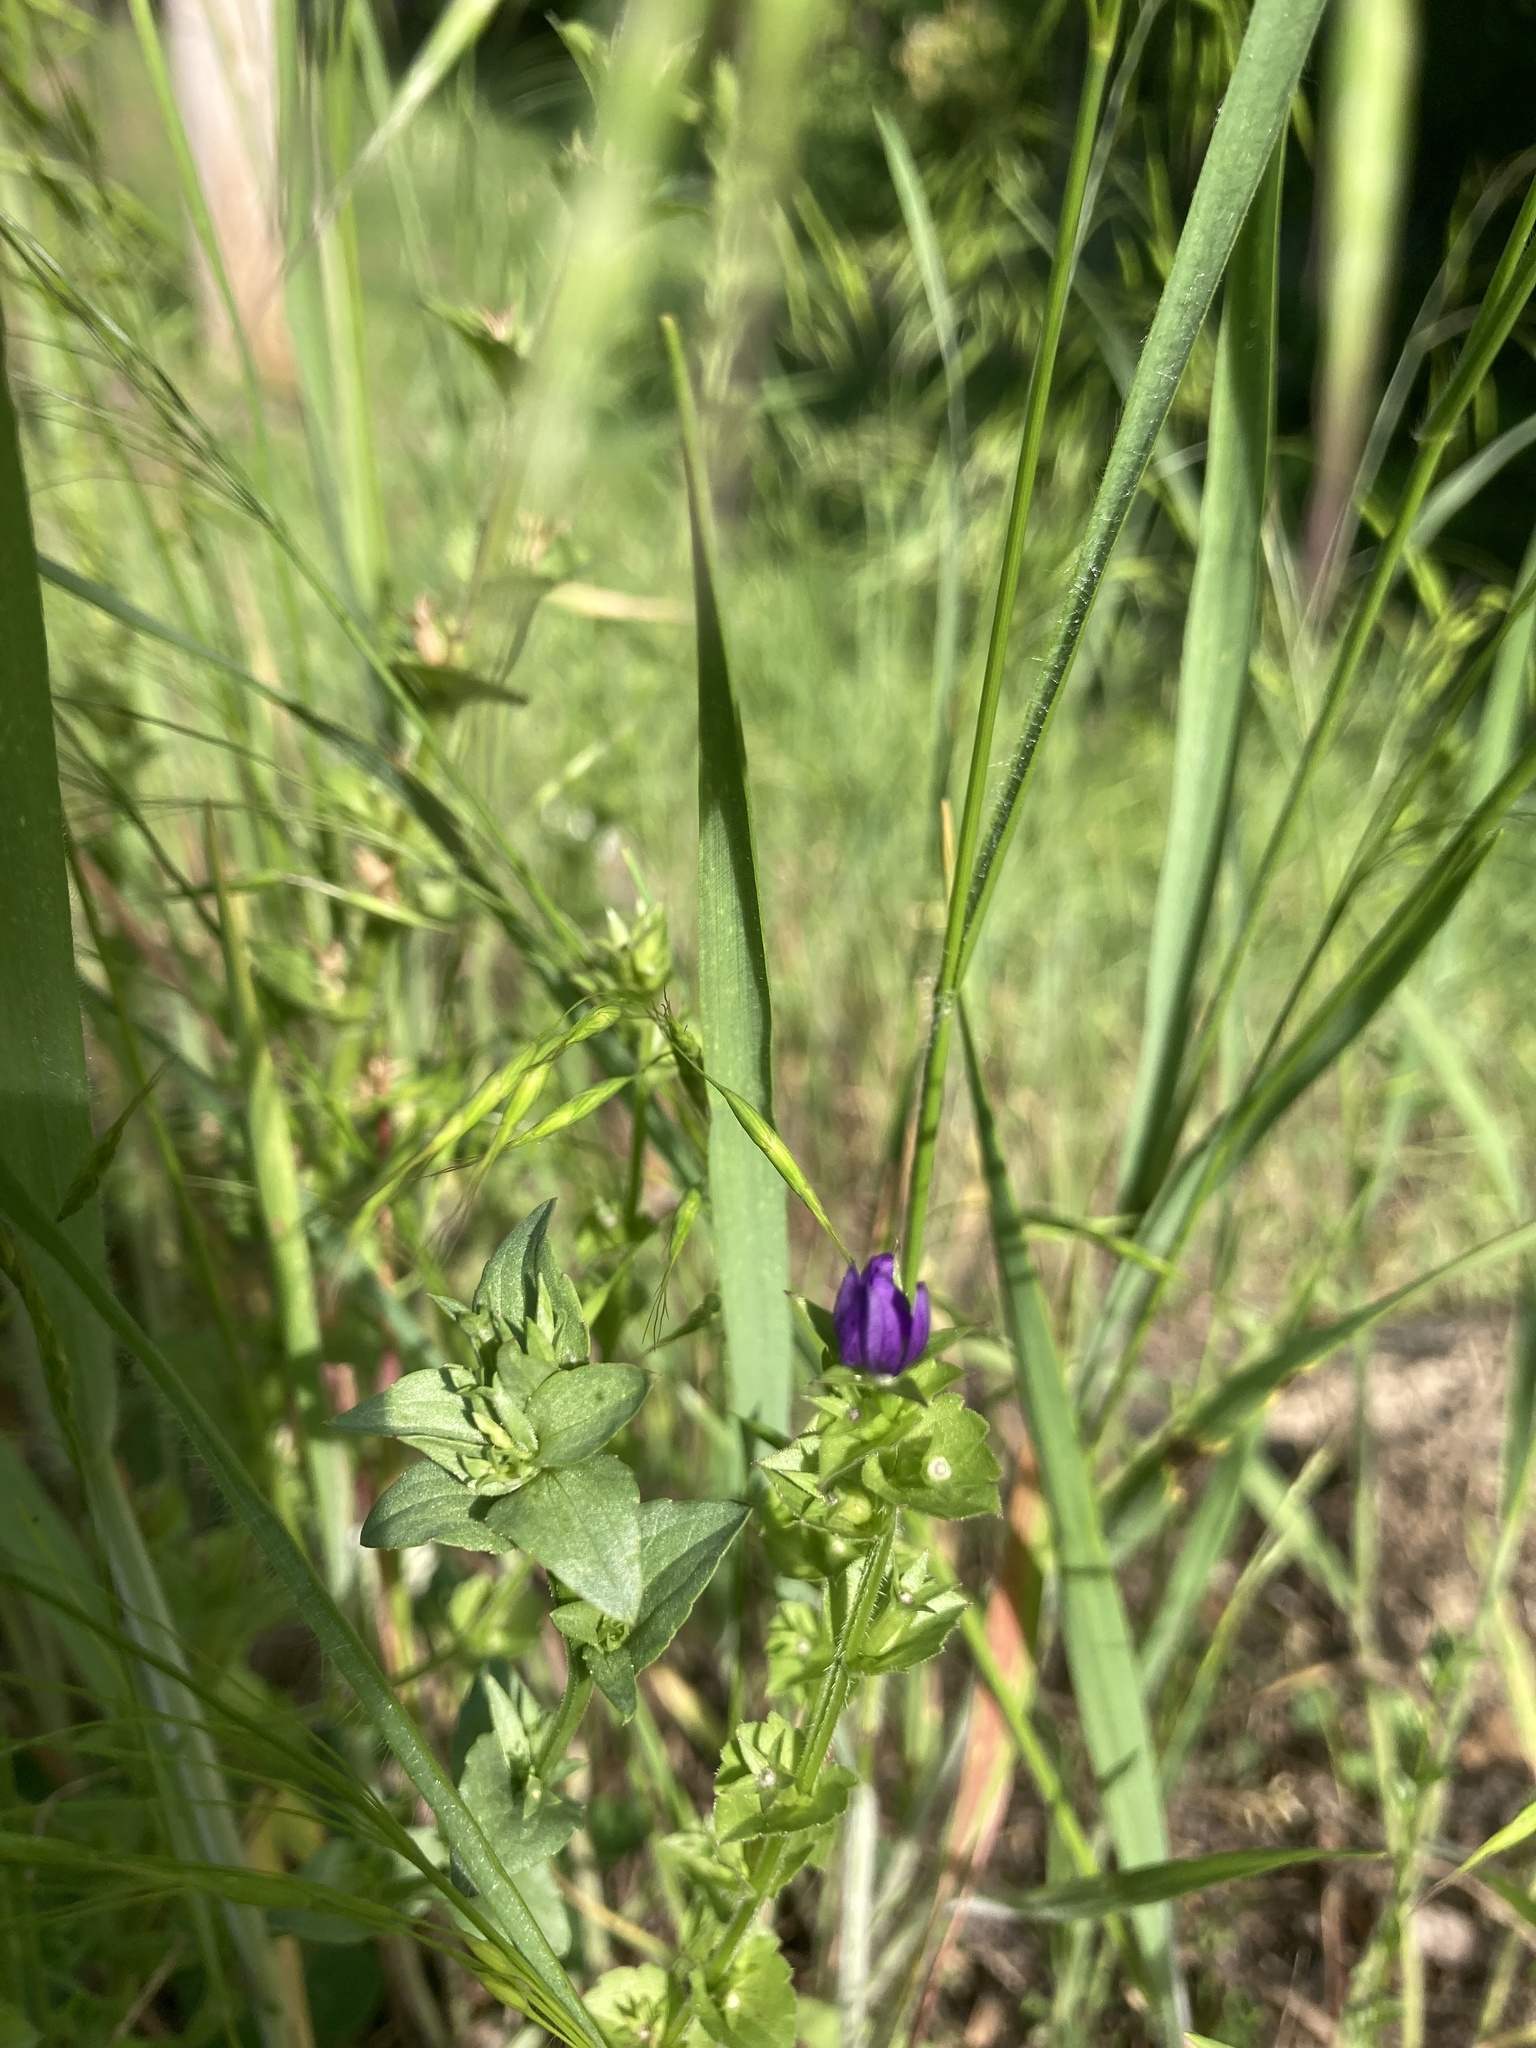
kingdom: Plantae
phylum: Tracheophyta
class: Magnoliopsida
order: Asterales
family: Campanulaceae
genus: Triodanis
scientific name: Triodanis perfoliata
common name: Clasping venus' looking-glass
